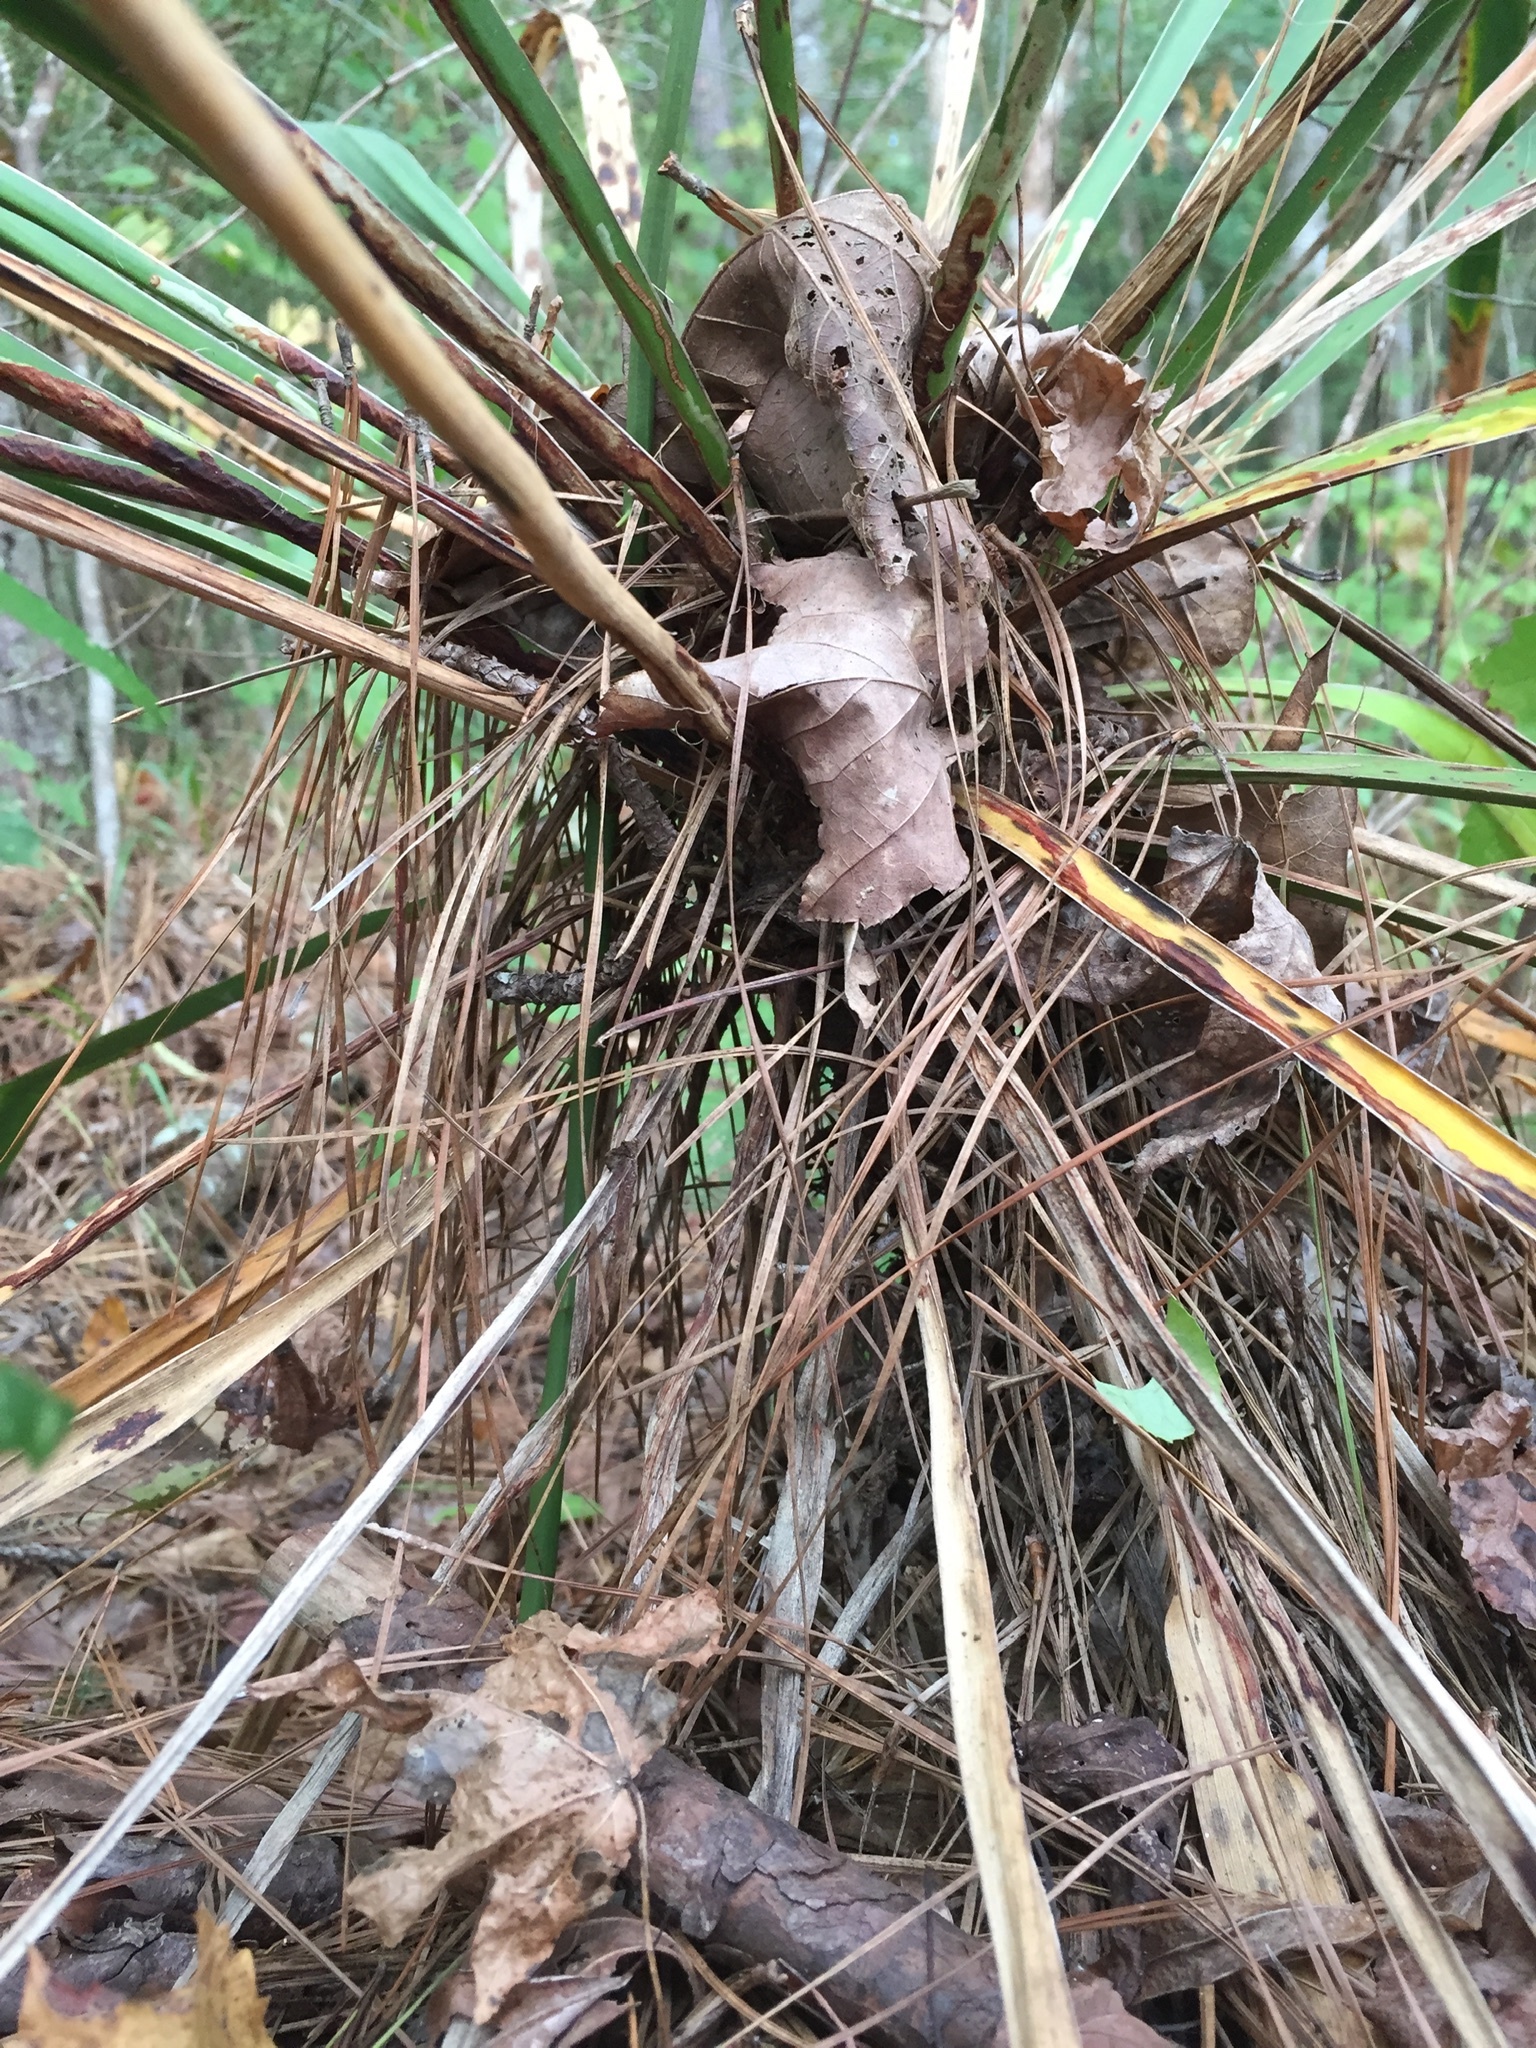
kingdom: Plantae
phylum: Tracheophyta
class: Liliopsida
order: Asparagales
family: Asparagaceae
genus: Yucca
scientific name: Yucca gloriosa
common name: Spanish-dagger
